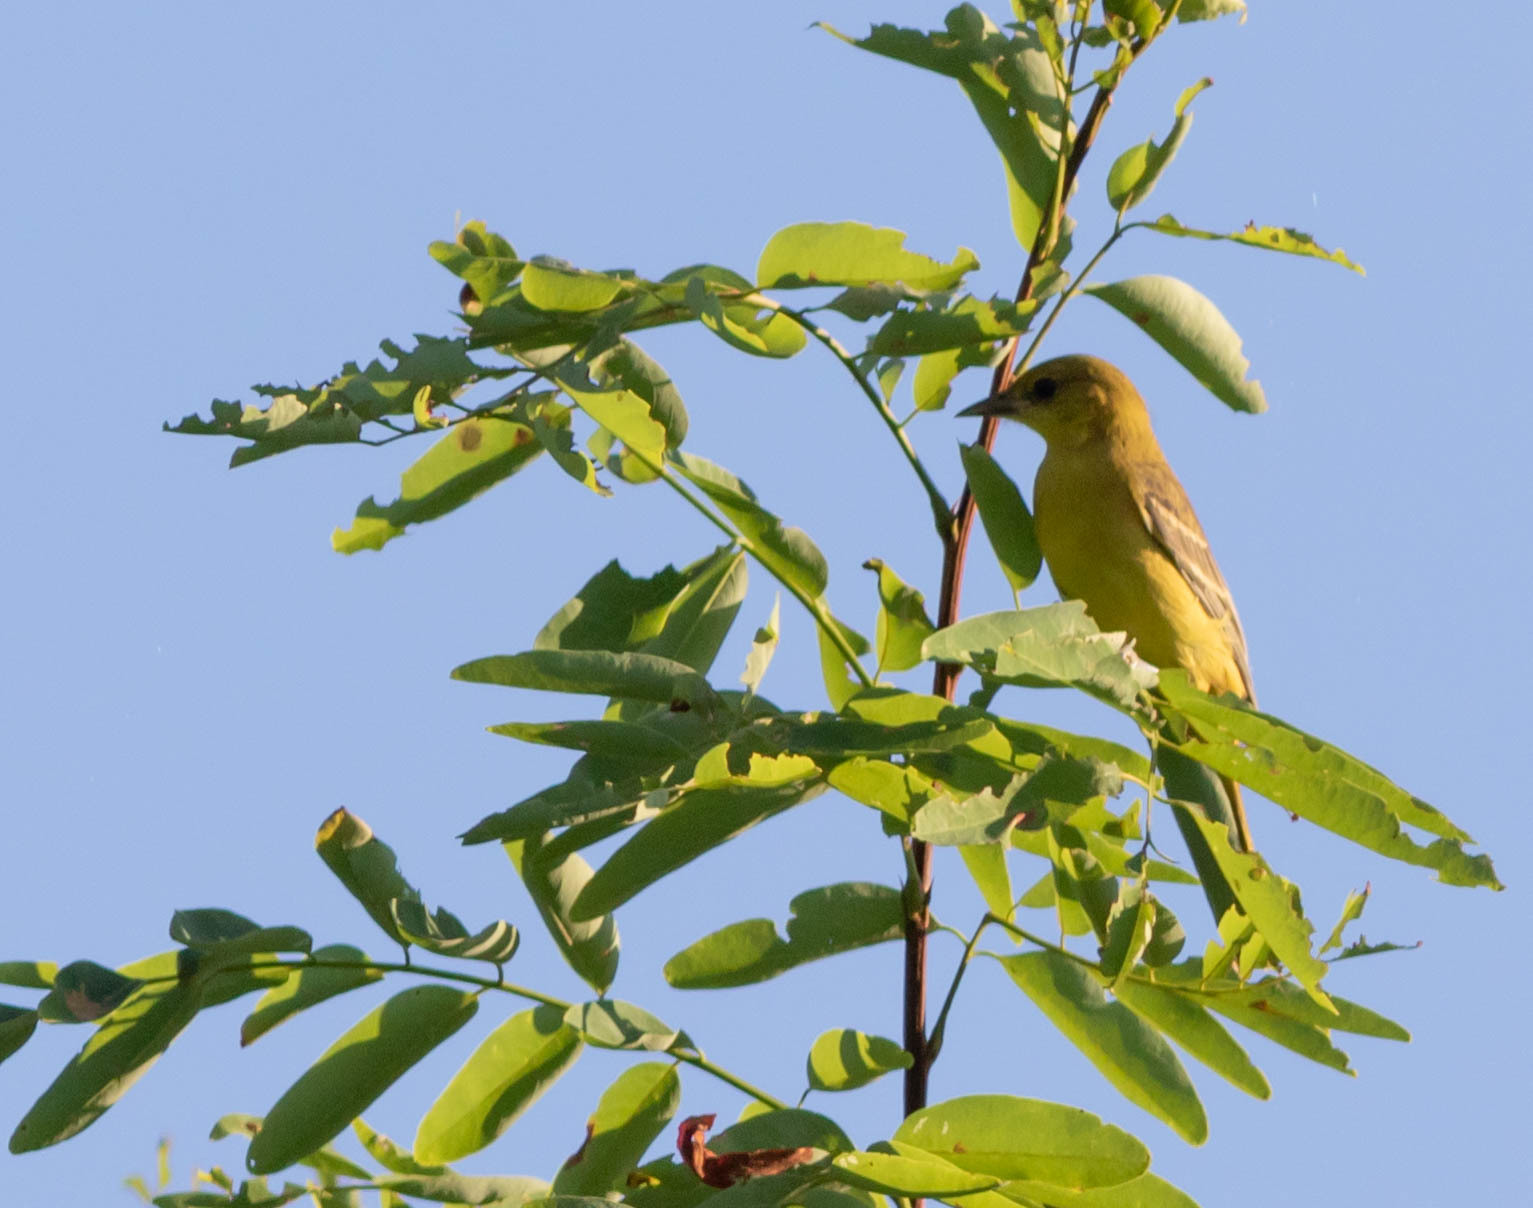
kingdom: Animalia
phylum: Chordata
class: Aves
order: Passeriformes
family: Icteridae
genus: Icterus
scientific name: Icterus spurius
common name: Orchard oriole
